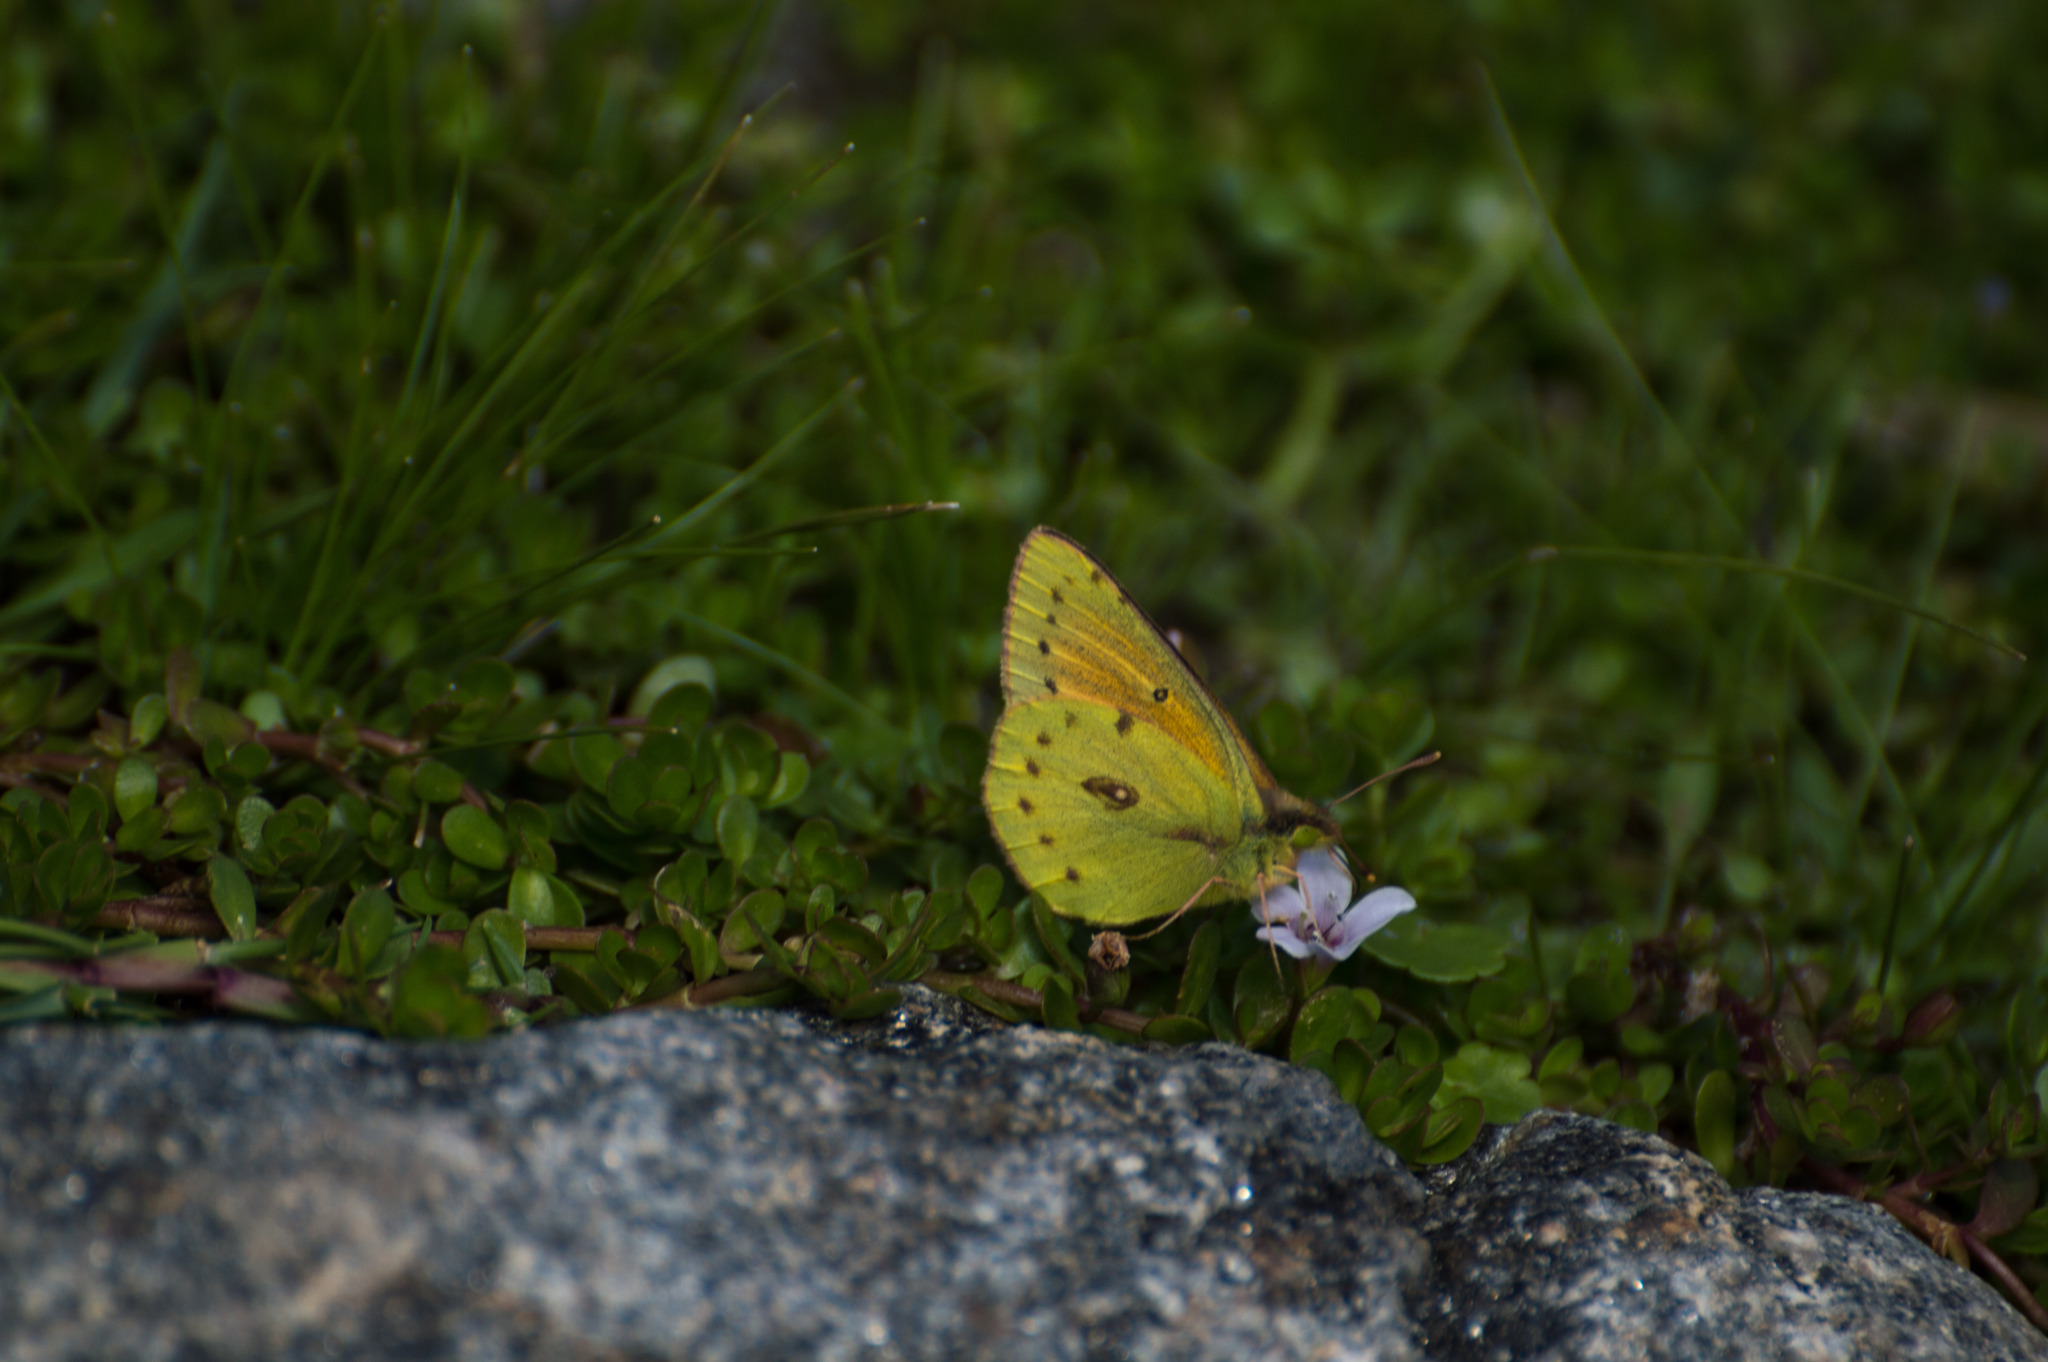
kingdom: Animalia
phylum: Arthropoda
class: Insecta
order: Lepidoptera
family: Pieridae
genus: Colias
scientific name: Colias lesbia
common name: Lesbia clouded yellow
